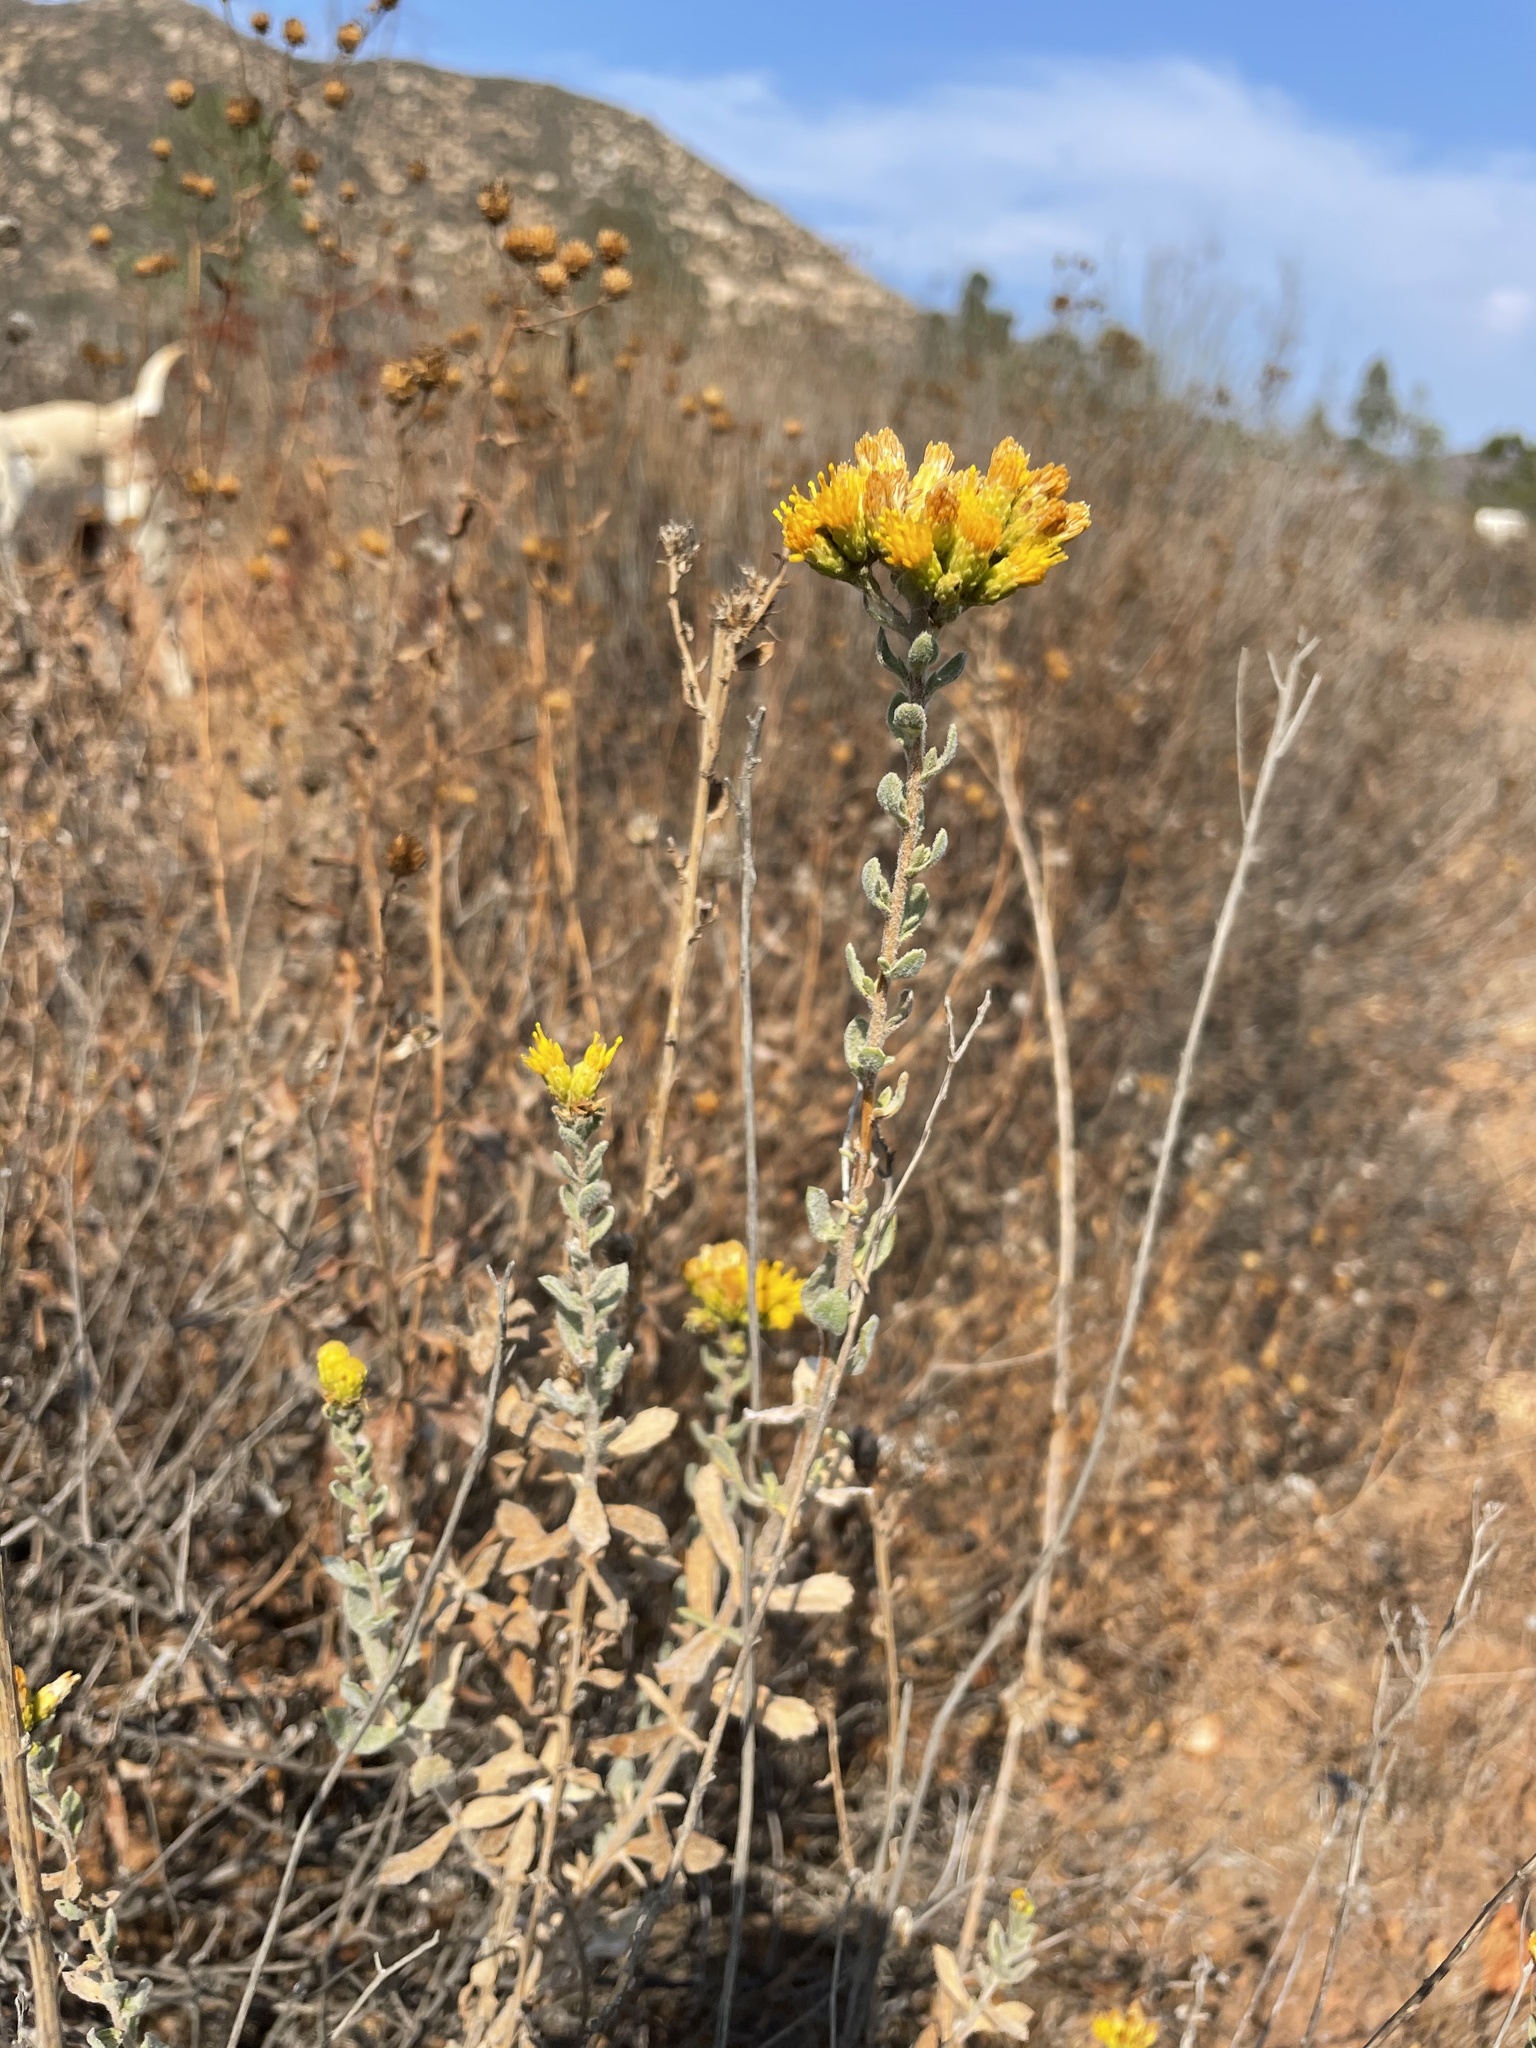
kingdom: Plantae
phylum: Tracheophyta
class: Magnoliopsida
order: Asterales
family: Asteraceae
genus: Isocoma
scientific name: Isocoma menziesii
